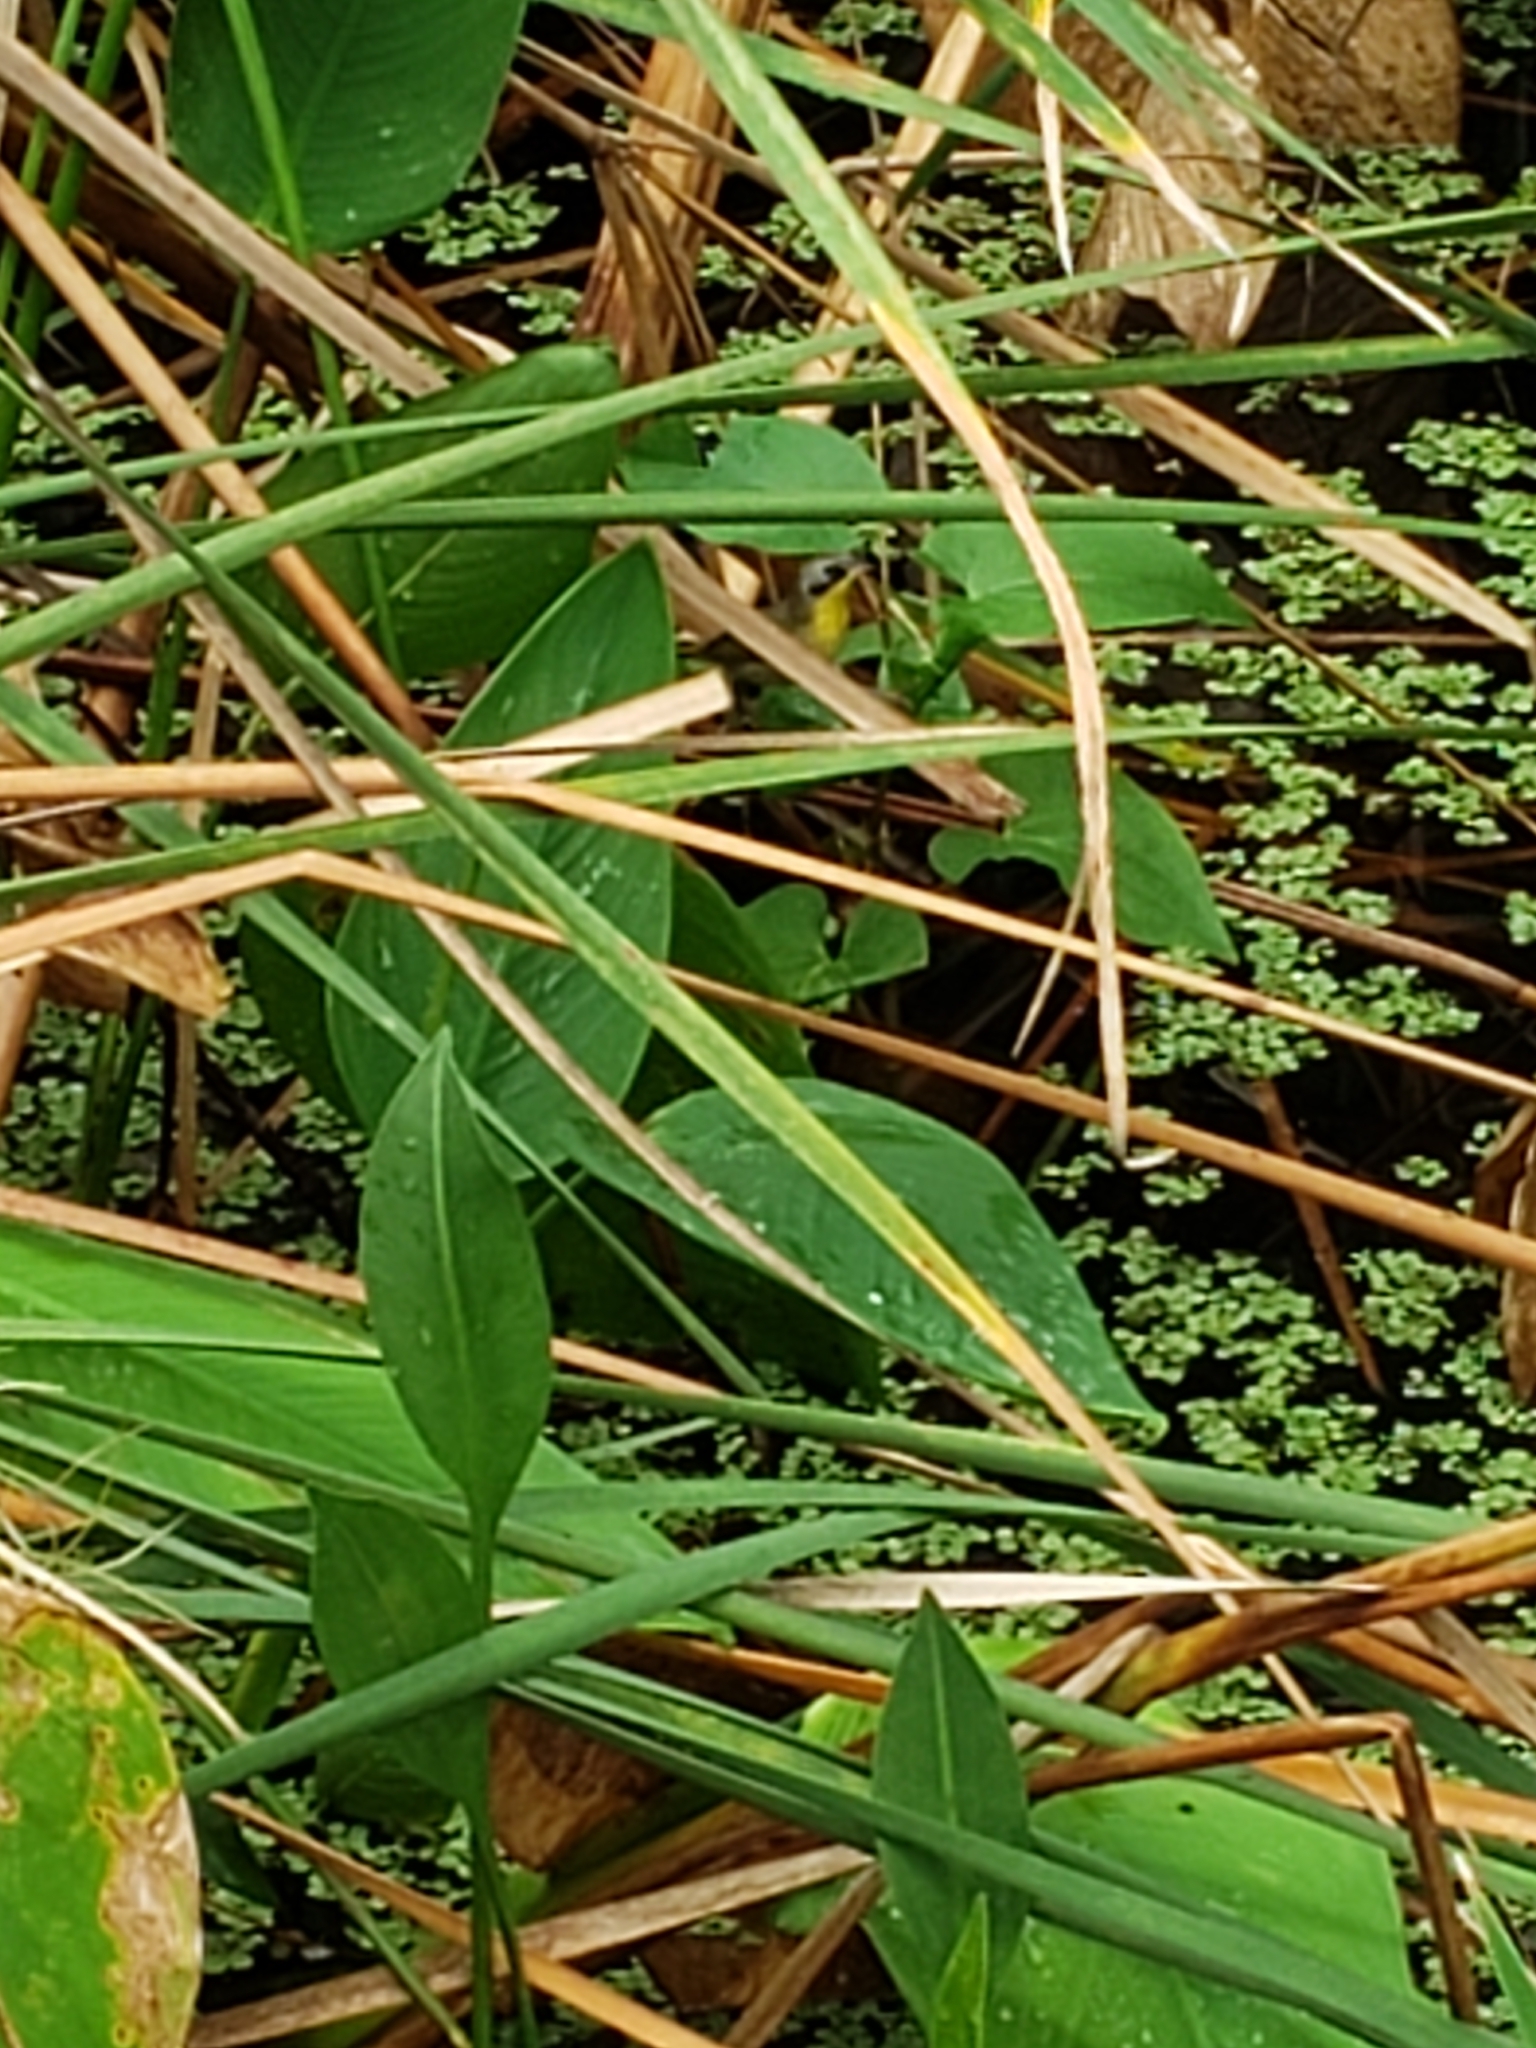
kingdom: Animalia
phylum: Chordata
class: Aves
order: Passeriformes
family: Parulidae
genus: Geothlypis
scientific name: Geothlypis trichas
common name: Common yellowthroat
